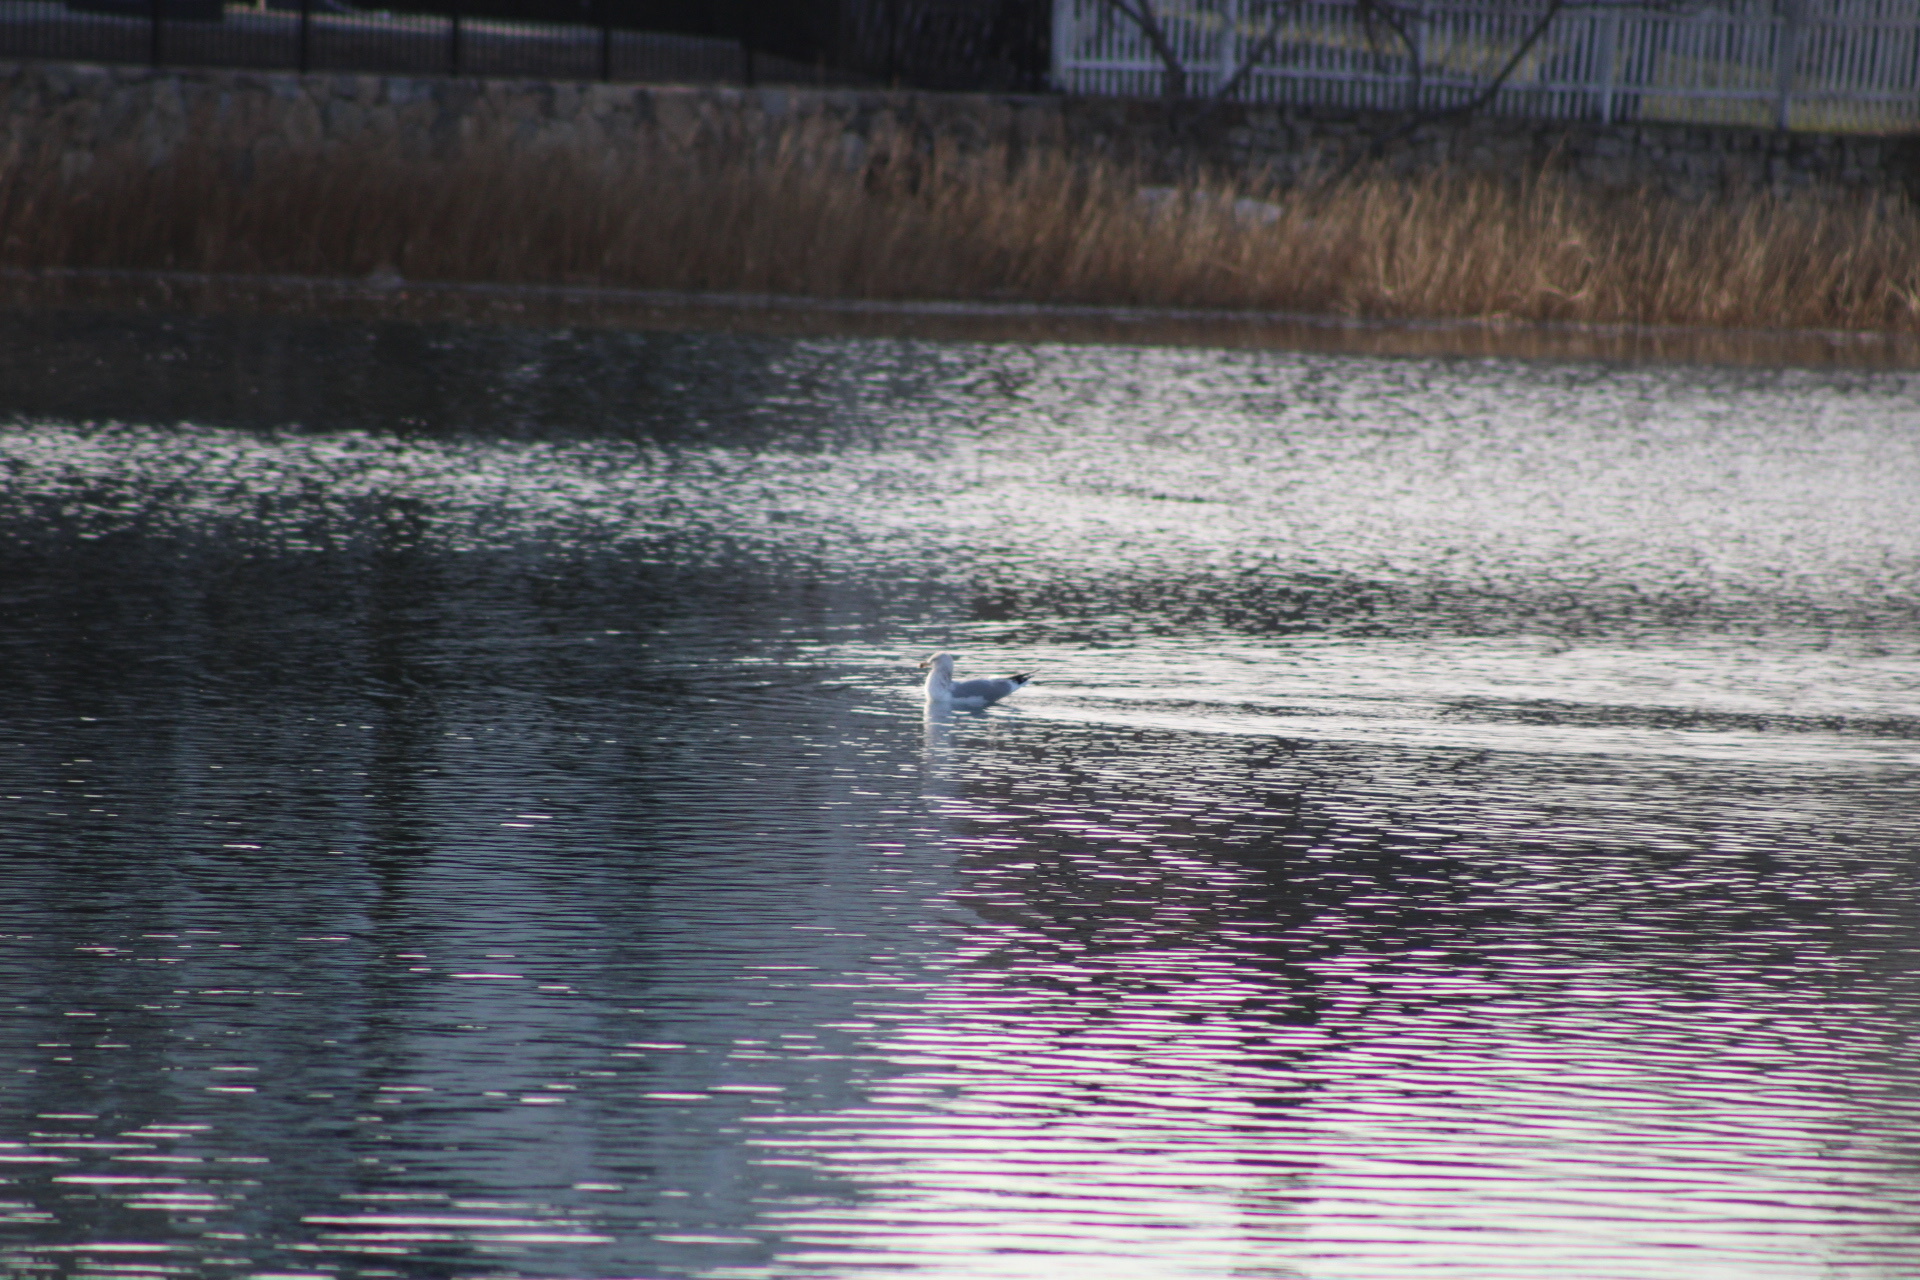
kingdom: Animalia
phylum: Chordata
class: Aves
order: Charadriiformes
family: Laridae
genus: Larus
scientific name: Larus delawarensis
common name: Ring-billed gull
